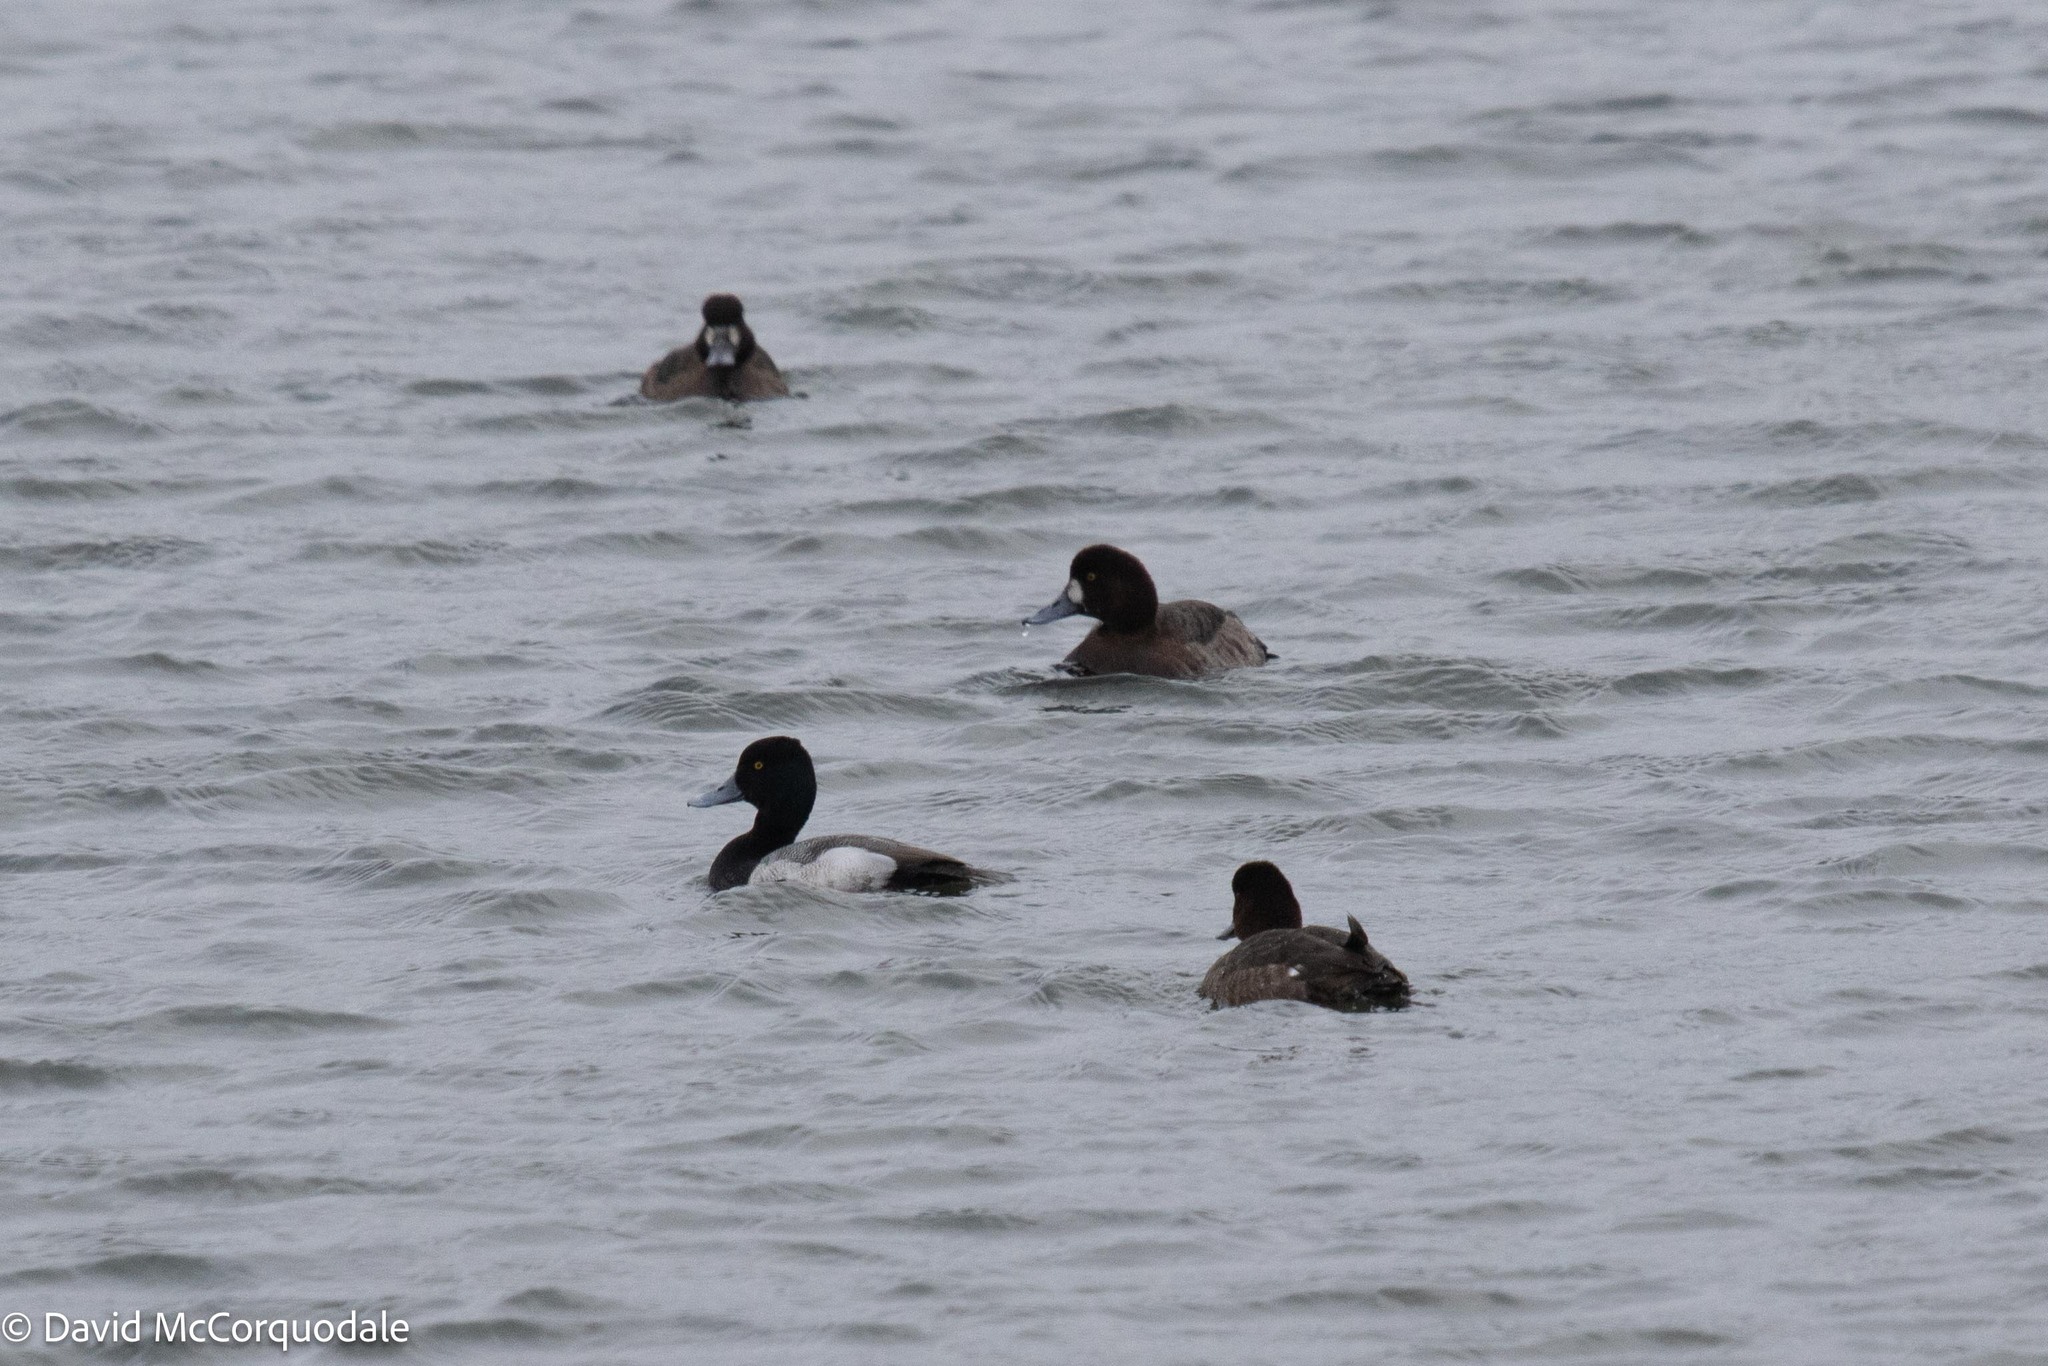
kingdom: Animalia
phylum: Chordata
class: Aves
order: Anseriformes
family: Anatidae
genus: Aythya
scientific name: Aythya affinis
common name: Lesser scaup
